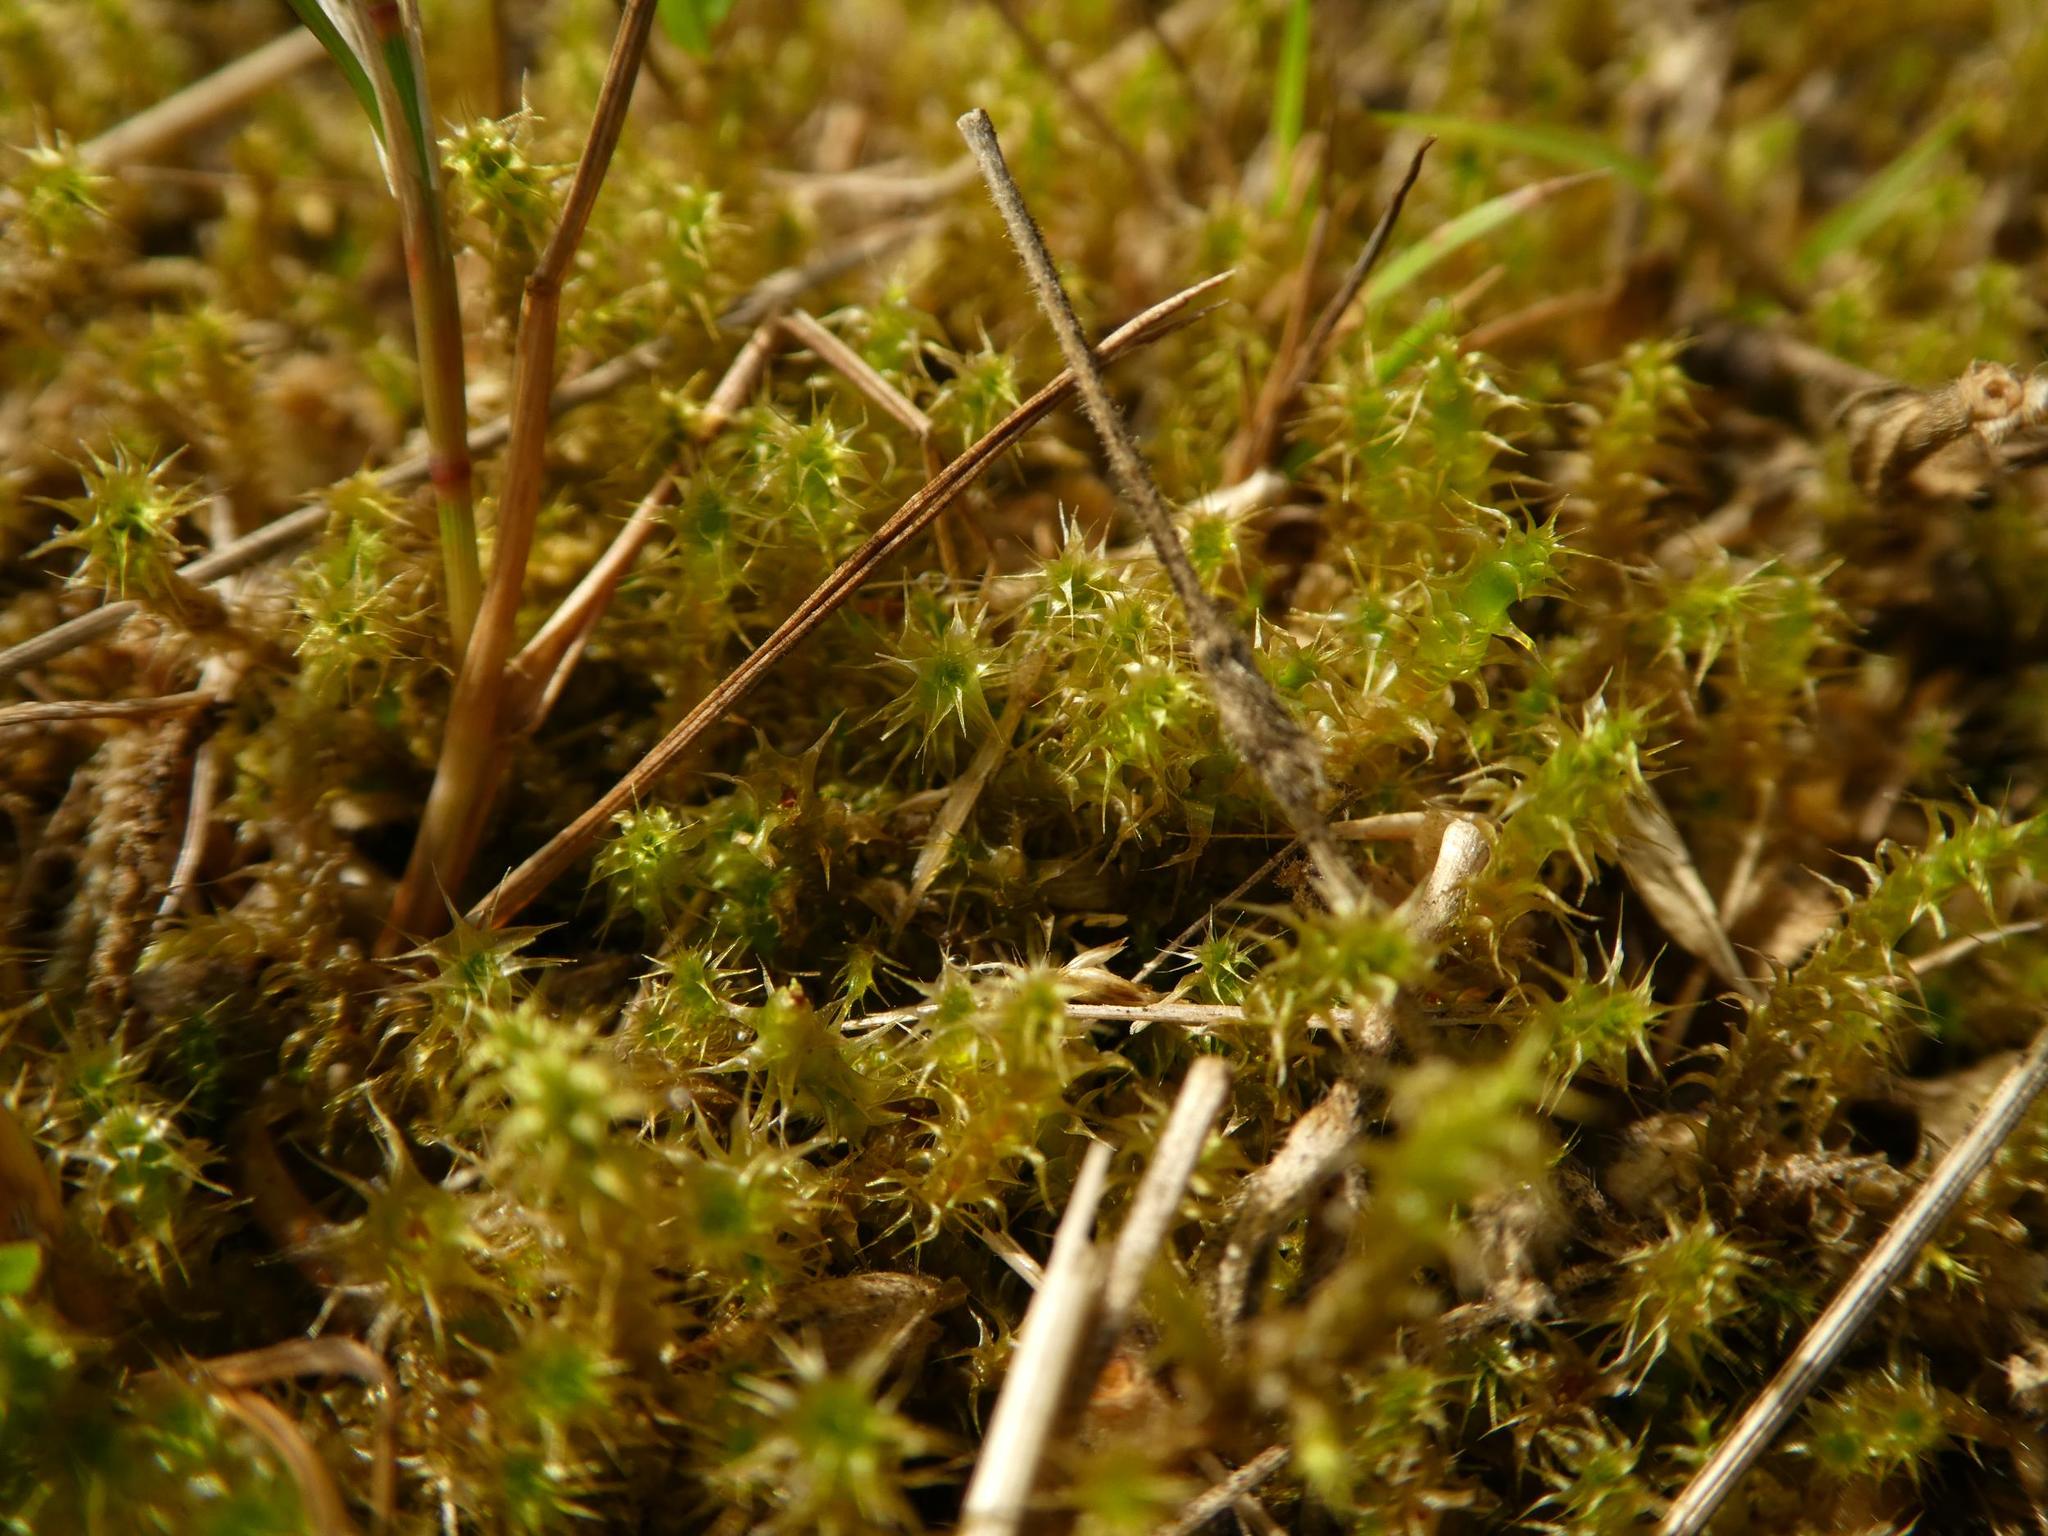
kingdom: Plantae
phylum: Bryophyta
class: Bryopsida
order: Hypnales
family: Hylocomiaceae
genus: Rhytidiadelphus
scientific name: Rhytidiadelphus squarrosus
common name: Springy turf-moss
